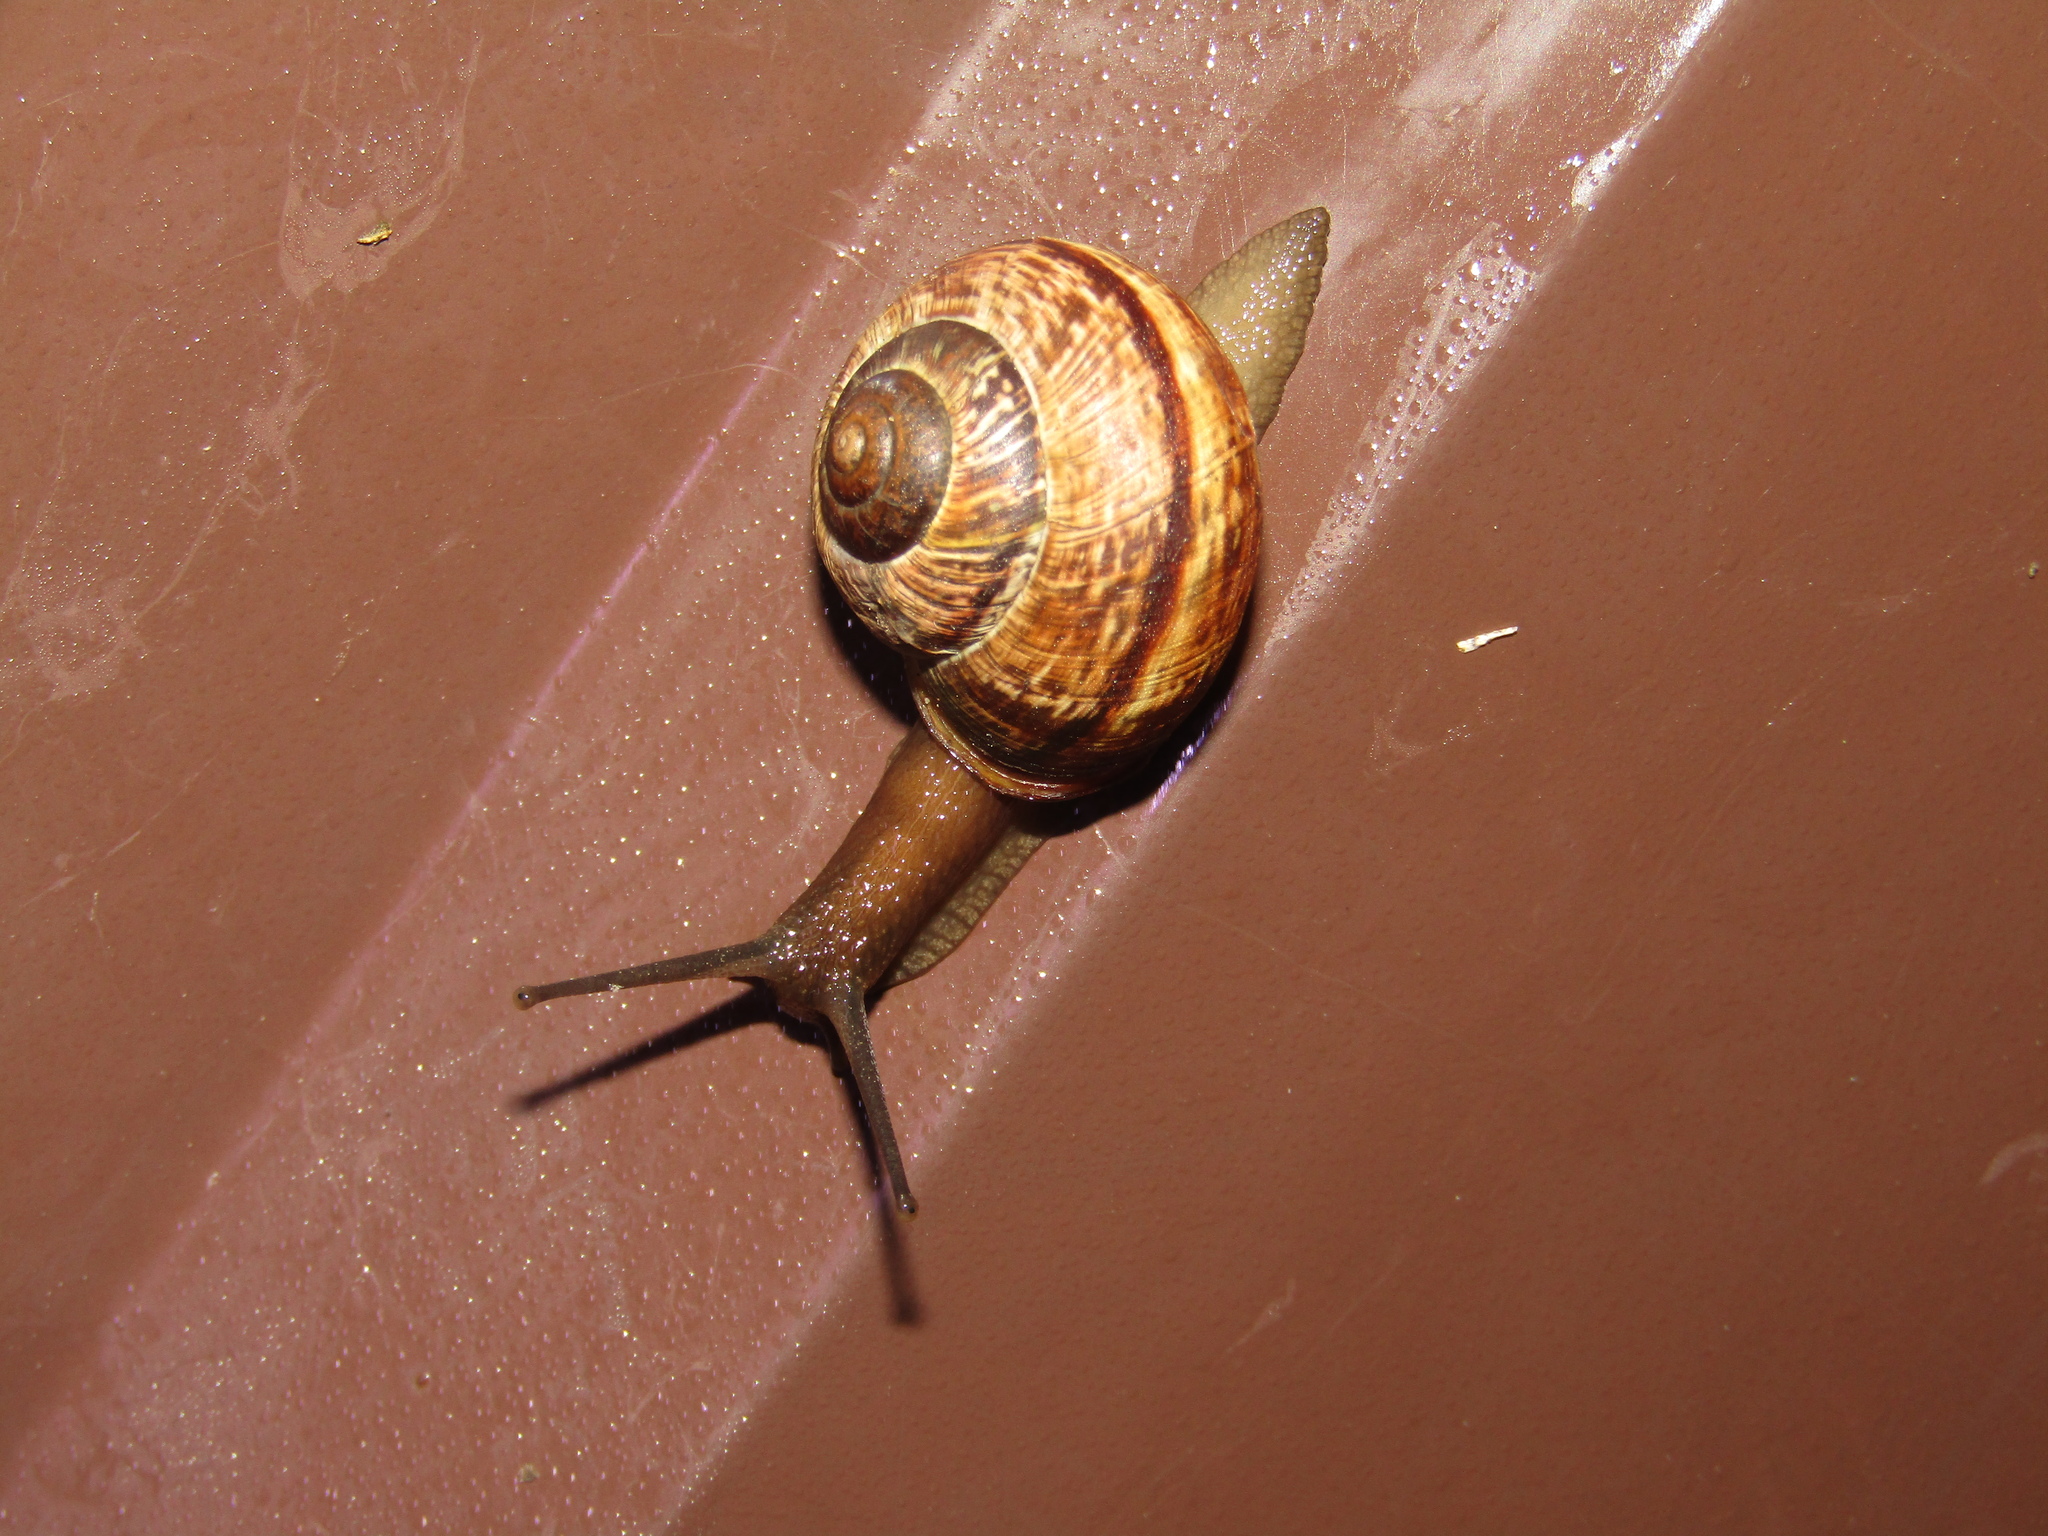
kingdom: Animalia
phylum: Mollusca
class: Gastropoda
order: Stylommatophora
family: Helicidae
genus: Arianta
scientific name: Arianta arbustorum
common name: Copse snail
